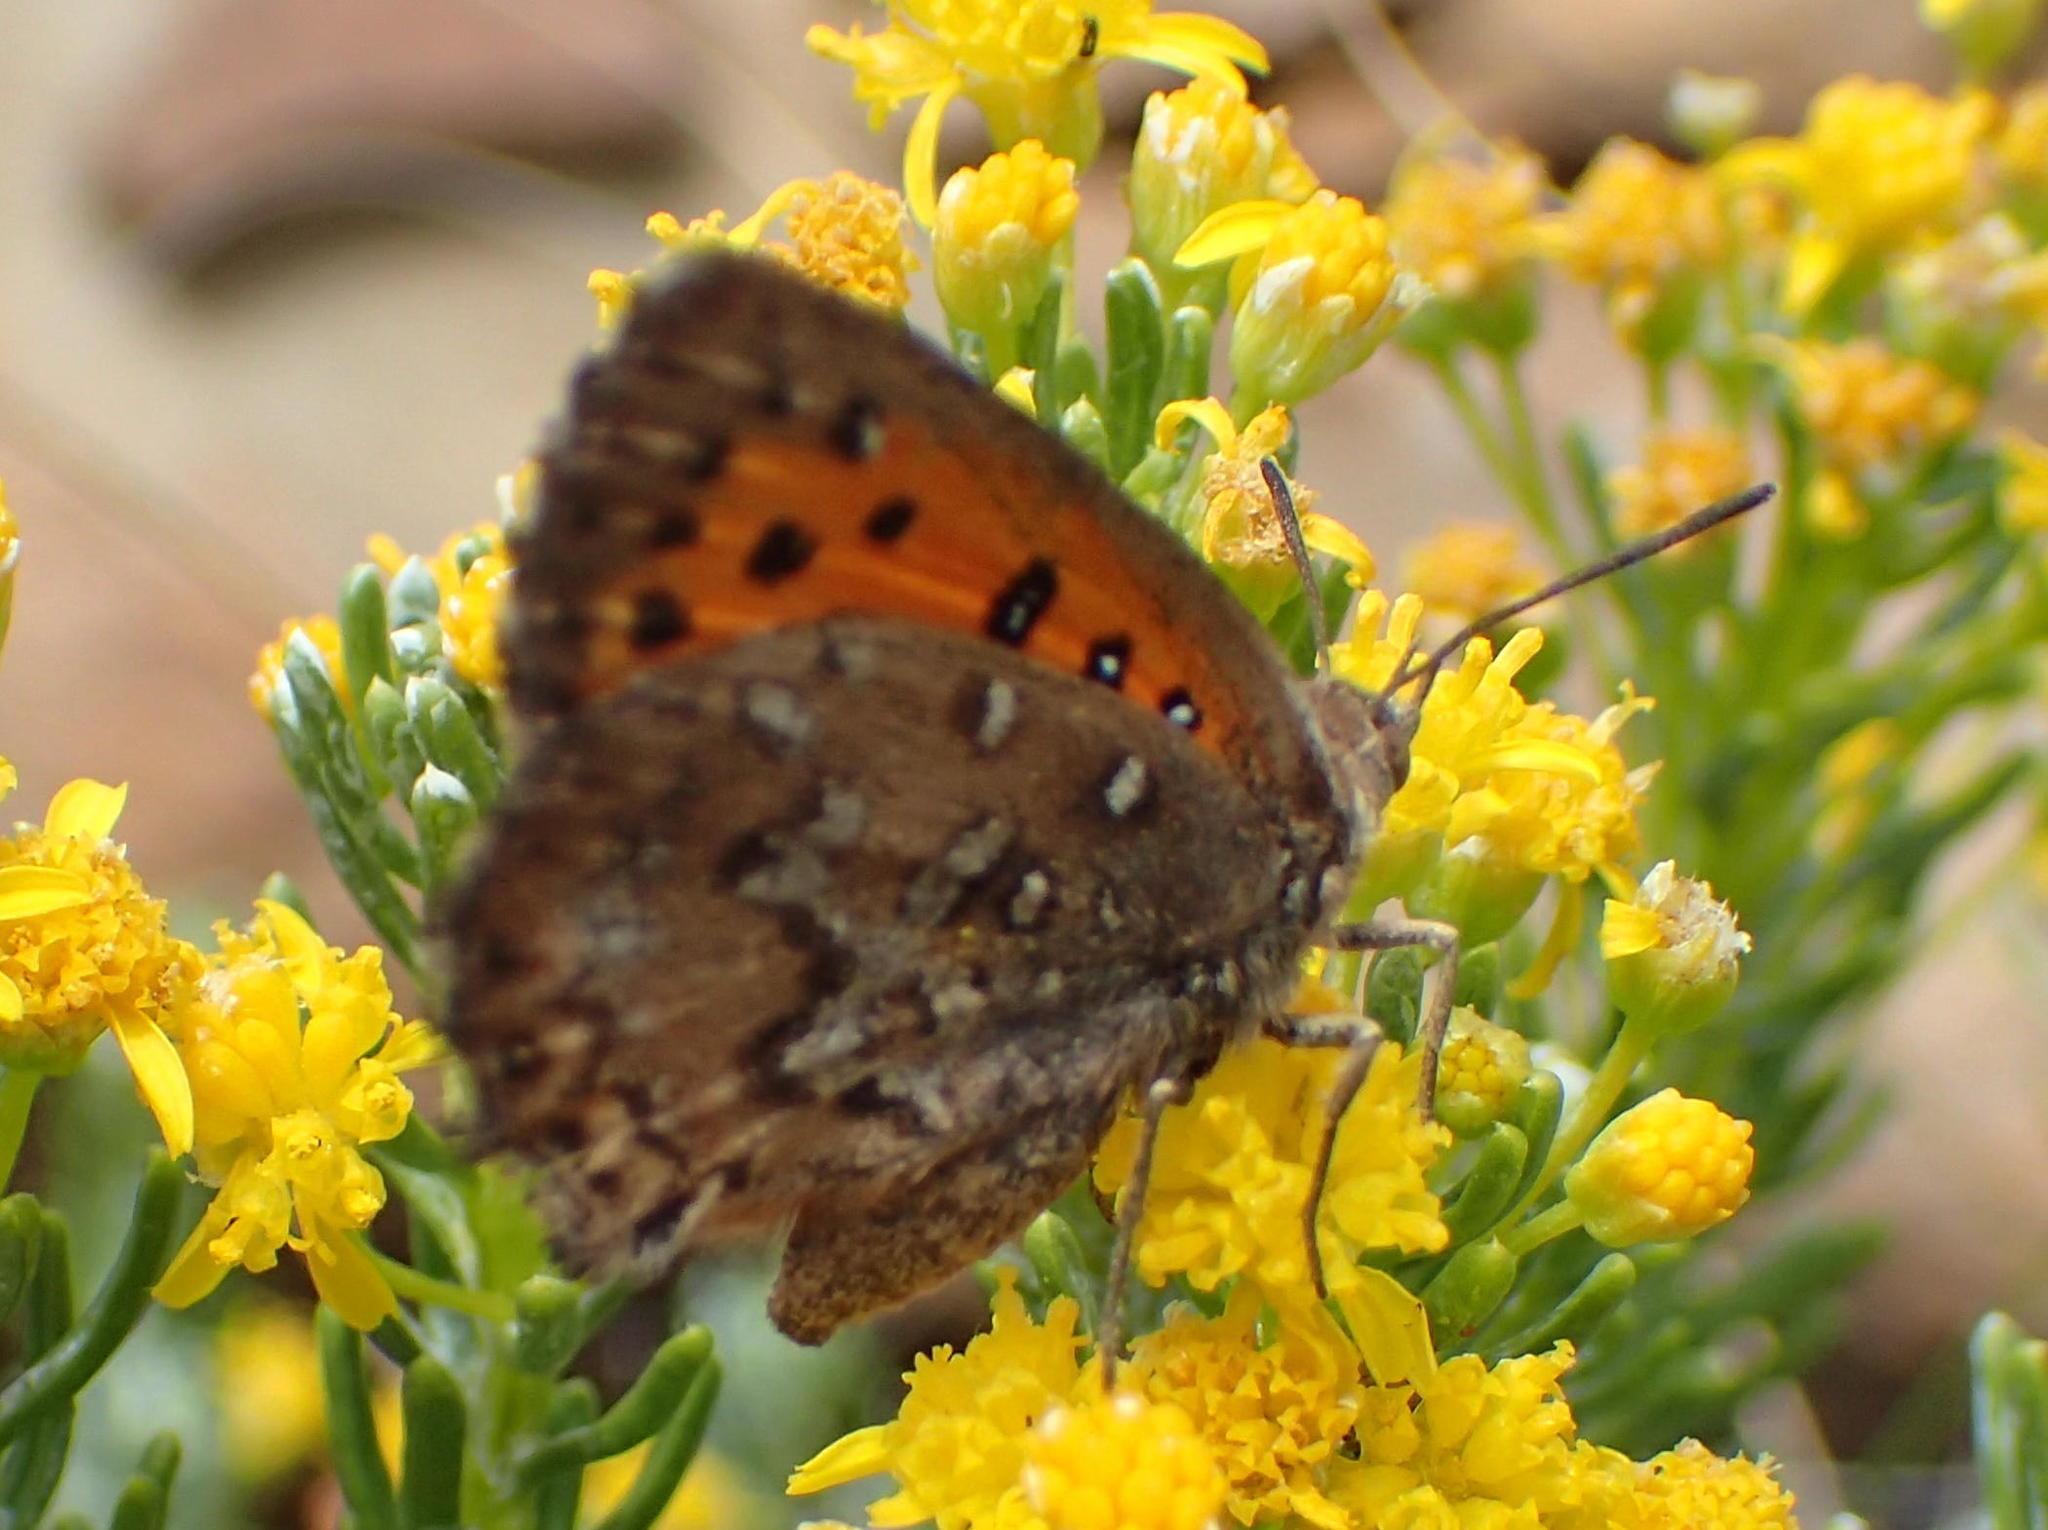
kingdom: Animalia
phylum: Arthropoda
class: Insecta
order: Lepidoptera
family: Lycaenidae
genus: Aloeides
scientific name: Aloeides depicta
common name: Depicta copper
